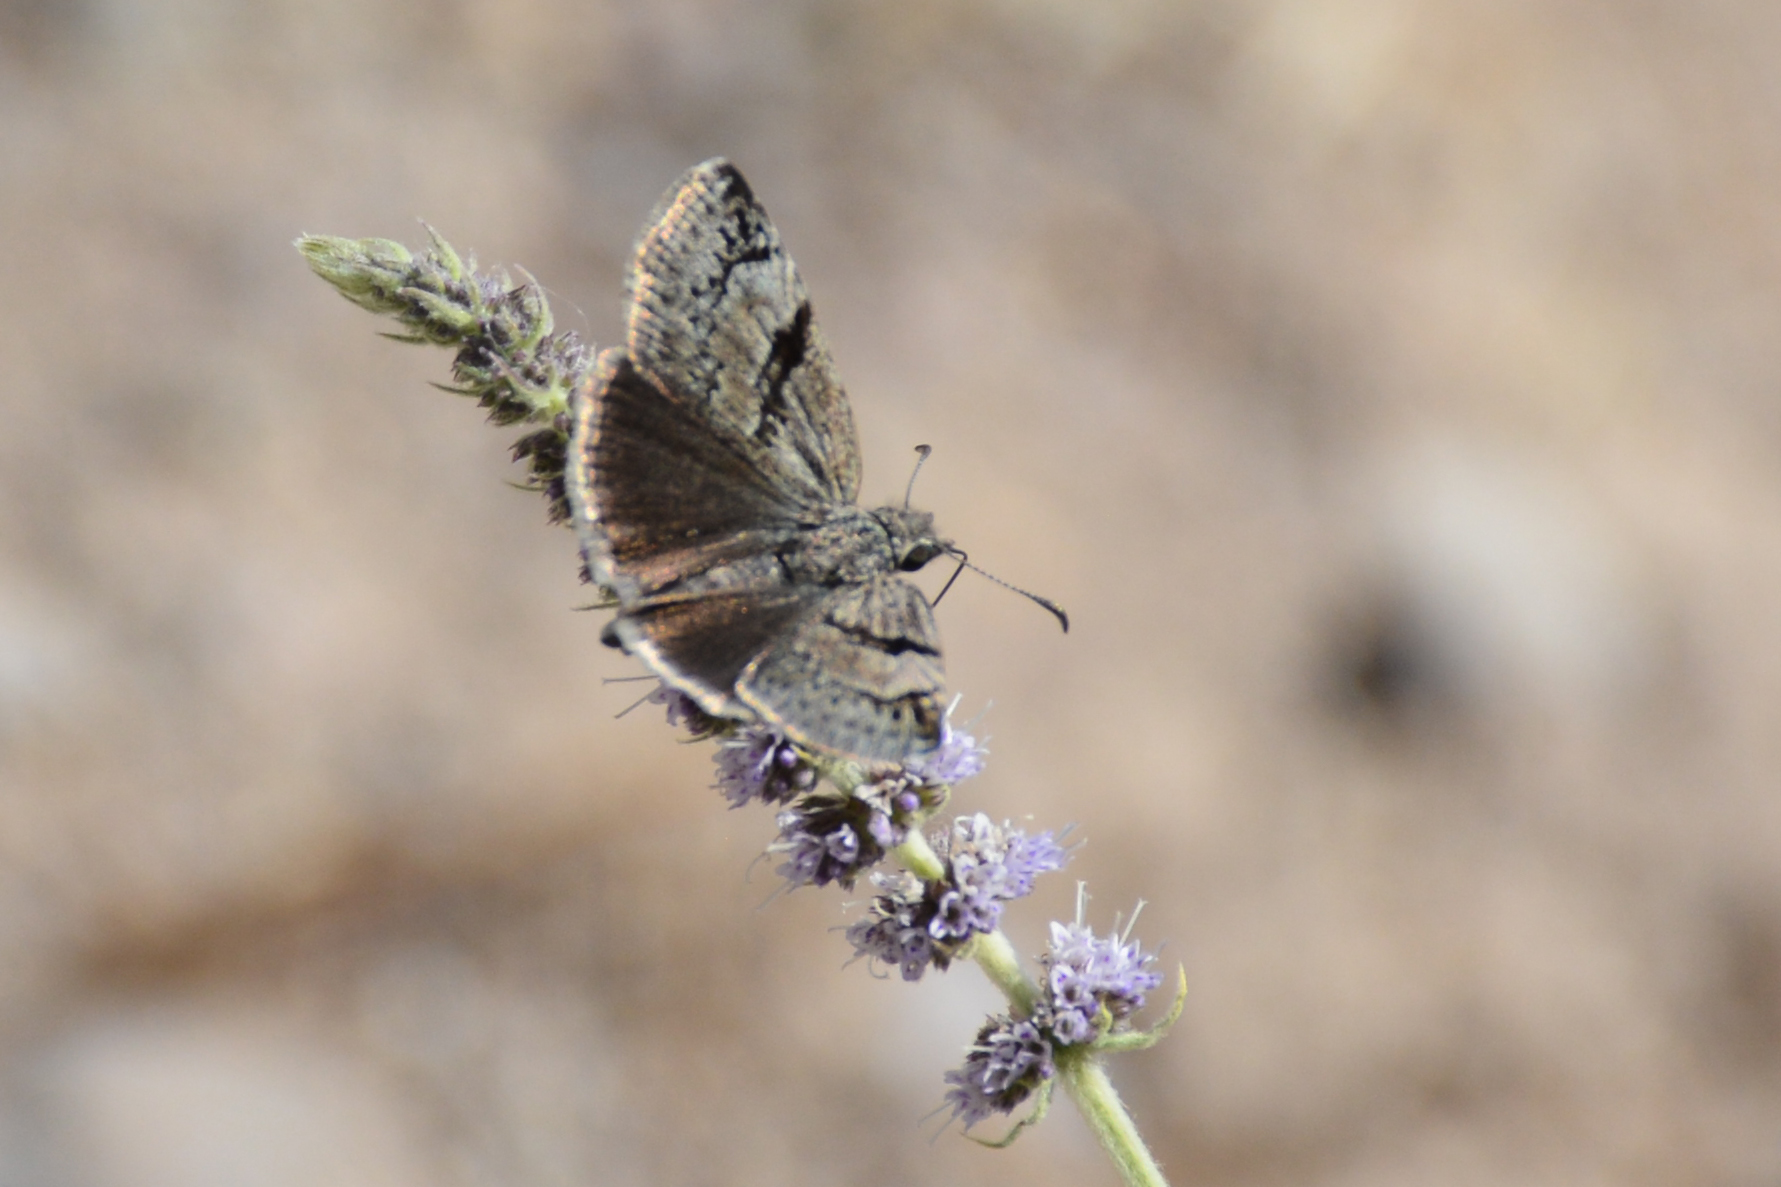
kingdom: Animalia
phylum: Arthropoda
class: Insecta
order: Lepidoptera
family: Hesperiidae
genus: Erynnis
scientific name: Erynnis marloyi
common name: Inky skipper
